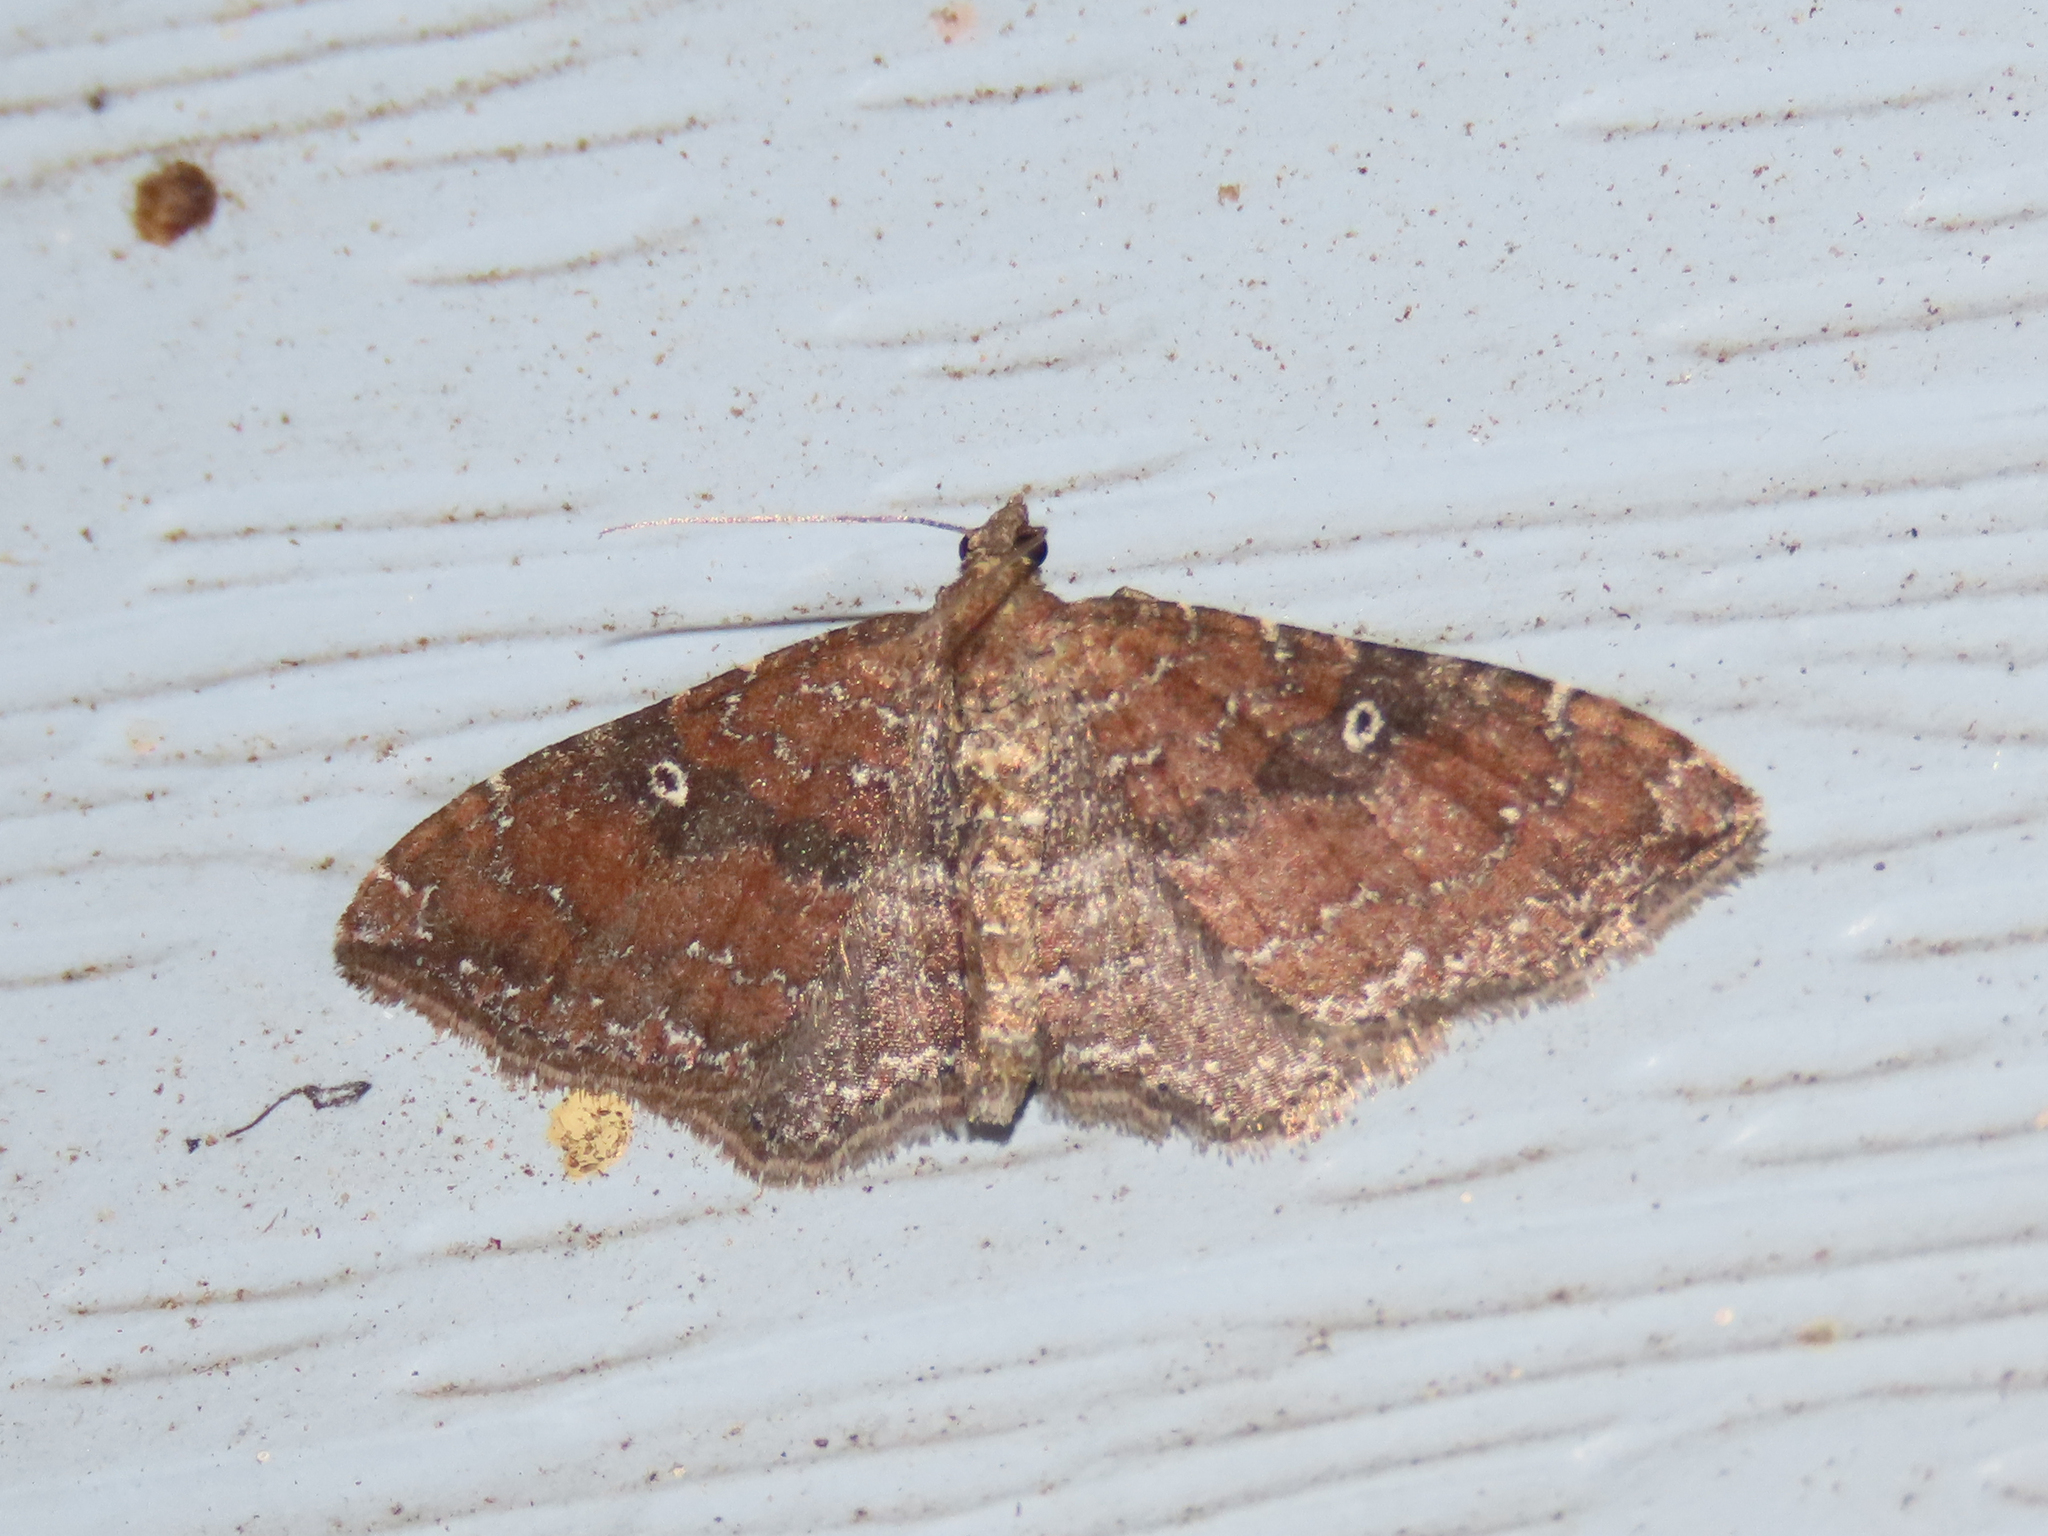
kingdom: Animalia
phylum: Arthropoda
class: Insecta
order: Lepidoptera
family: Geometridae
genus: Orthonama
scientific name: Orthonama obstipata
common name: The gem
